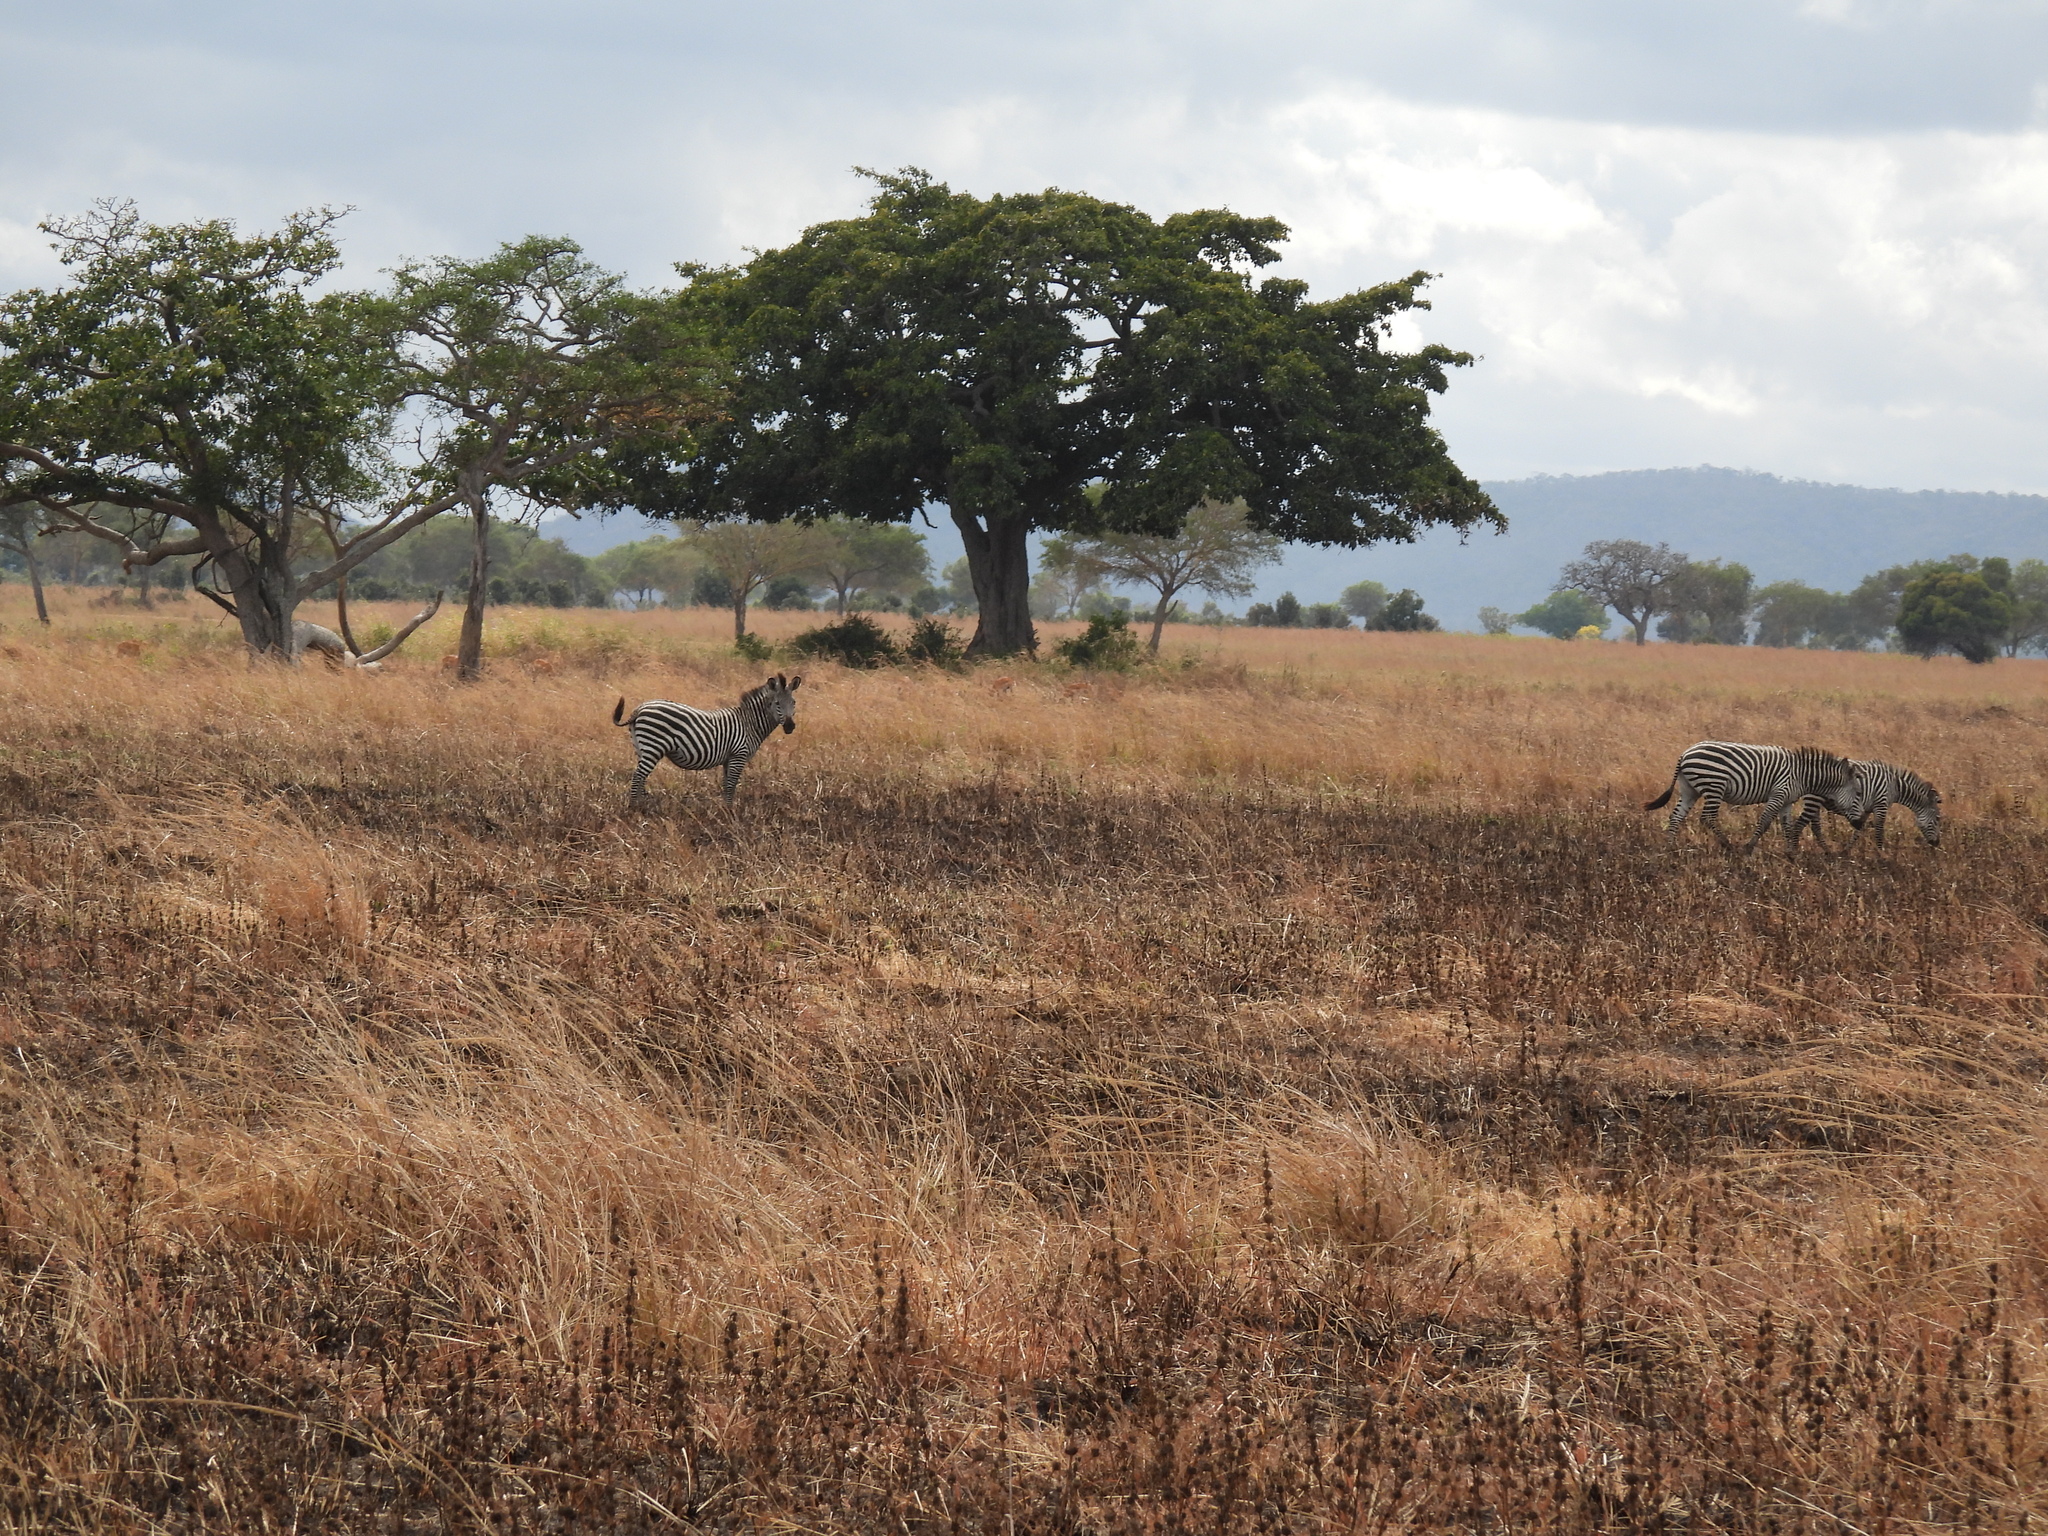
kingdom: Animalia
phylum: Chordata
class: Mammalia
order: Perissodactyla
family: Equidae
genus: Equus
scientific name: Equus quagga
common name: Plains zebra
